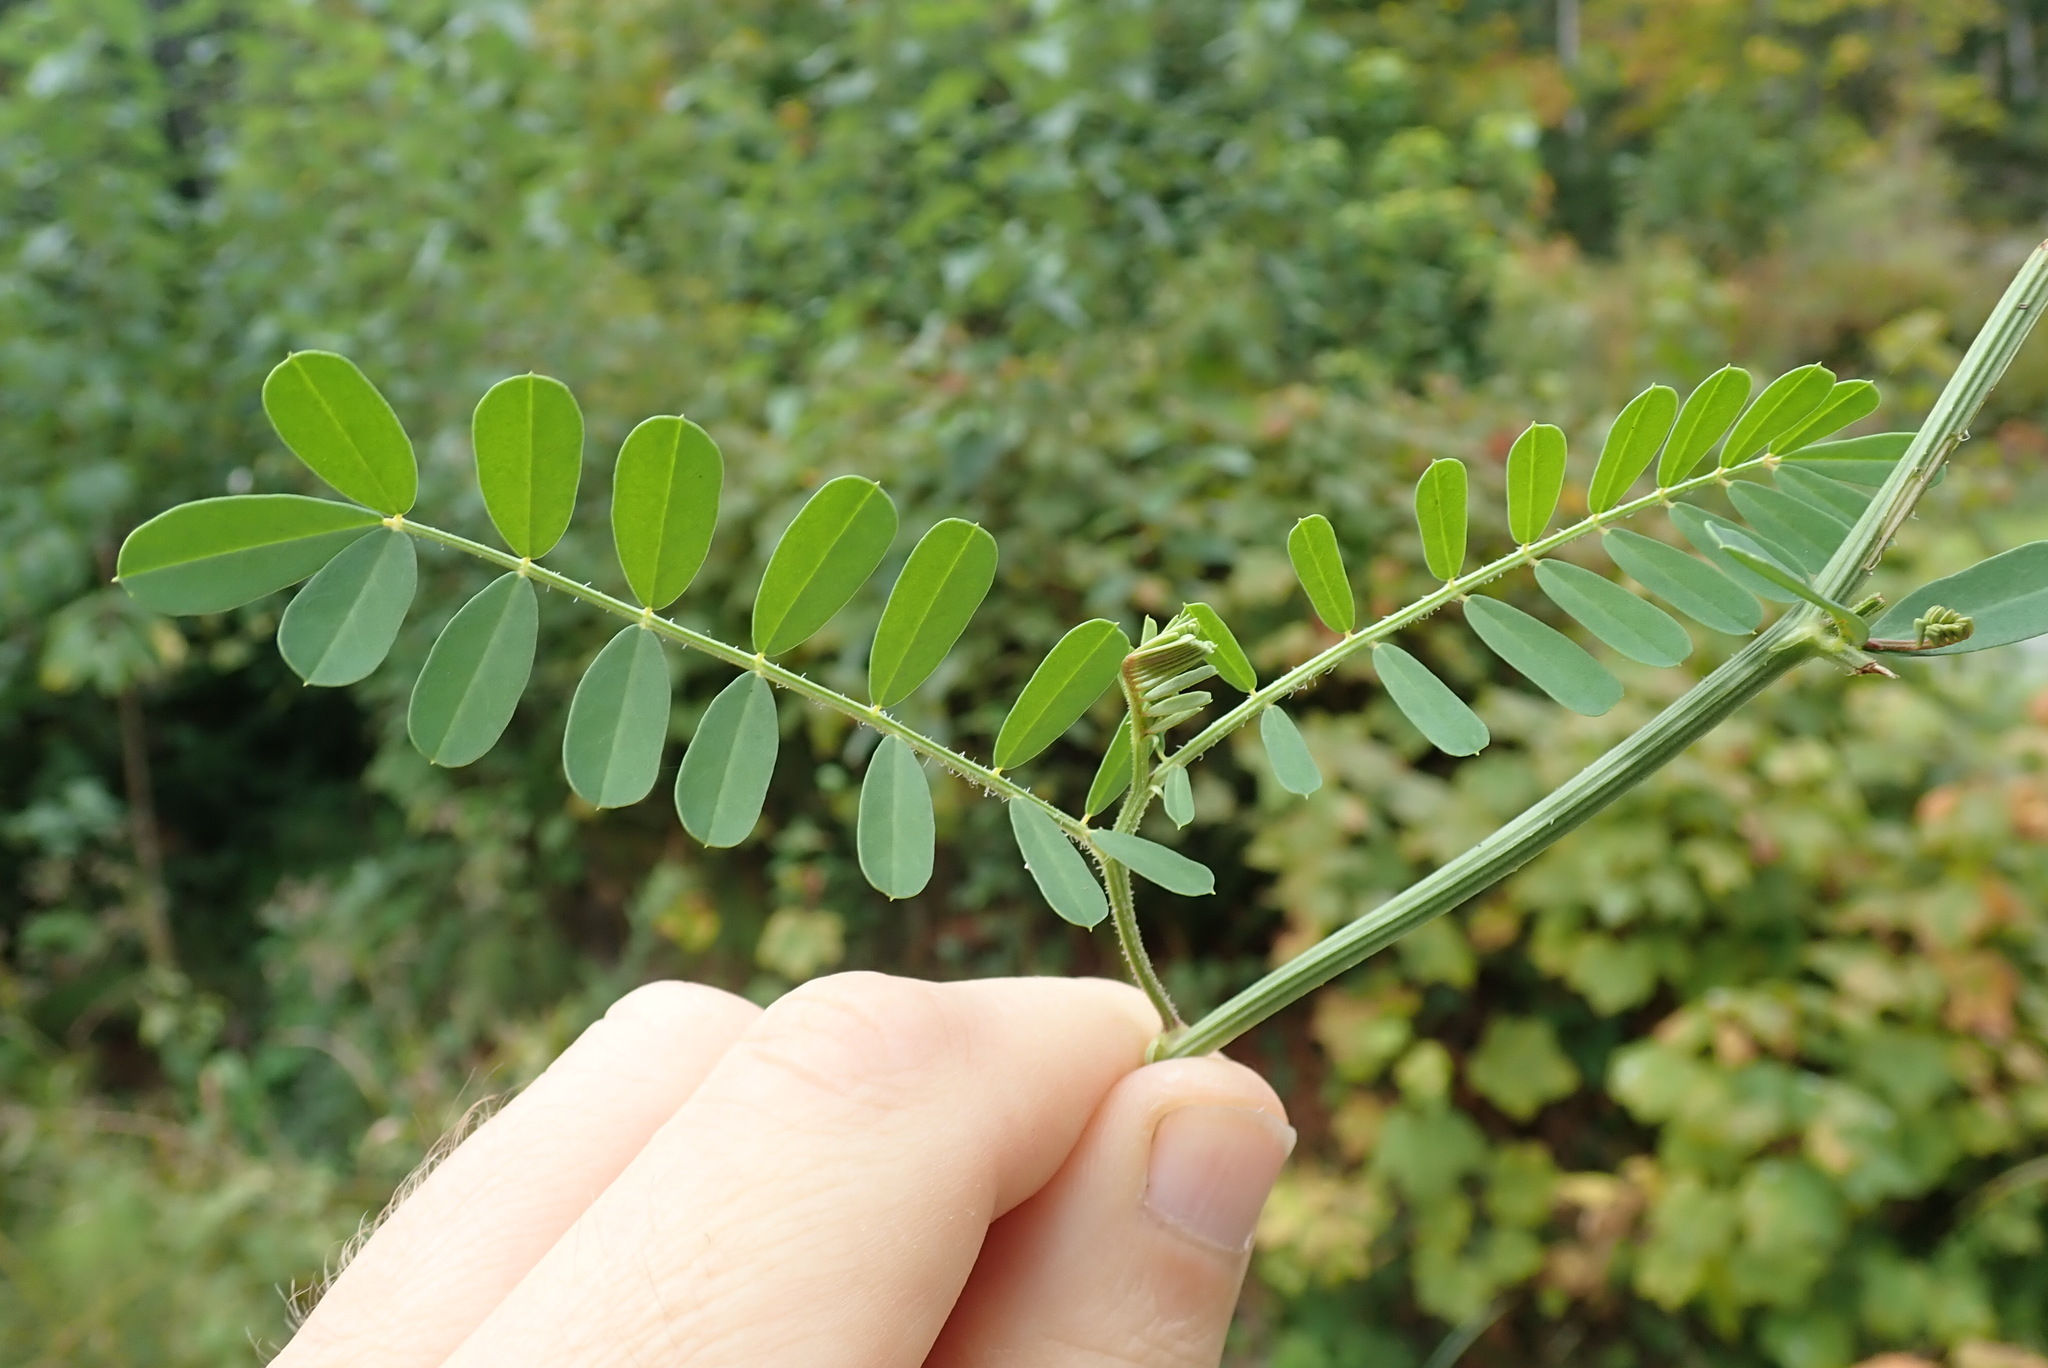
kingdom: Plantae
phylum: Tracheophyta
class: Magnoliopsida
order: Fabales
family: Fabaceae
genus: Coronilla
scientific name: Coronilla varia
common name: Crownvetch
